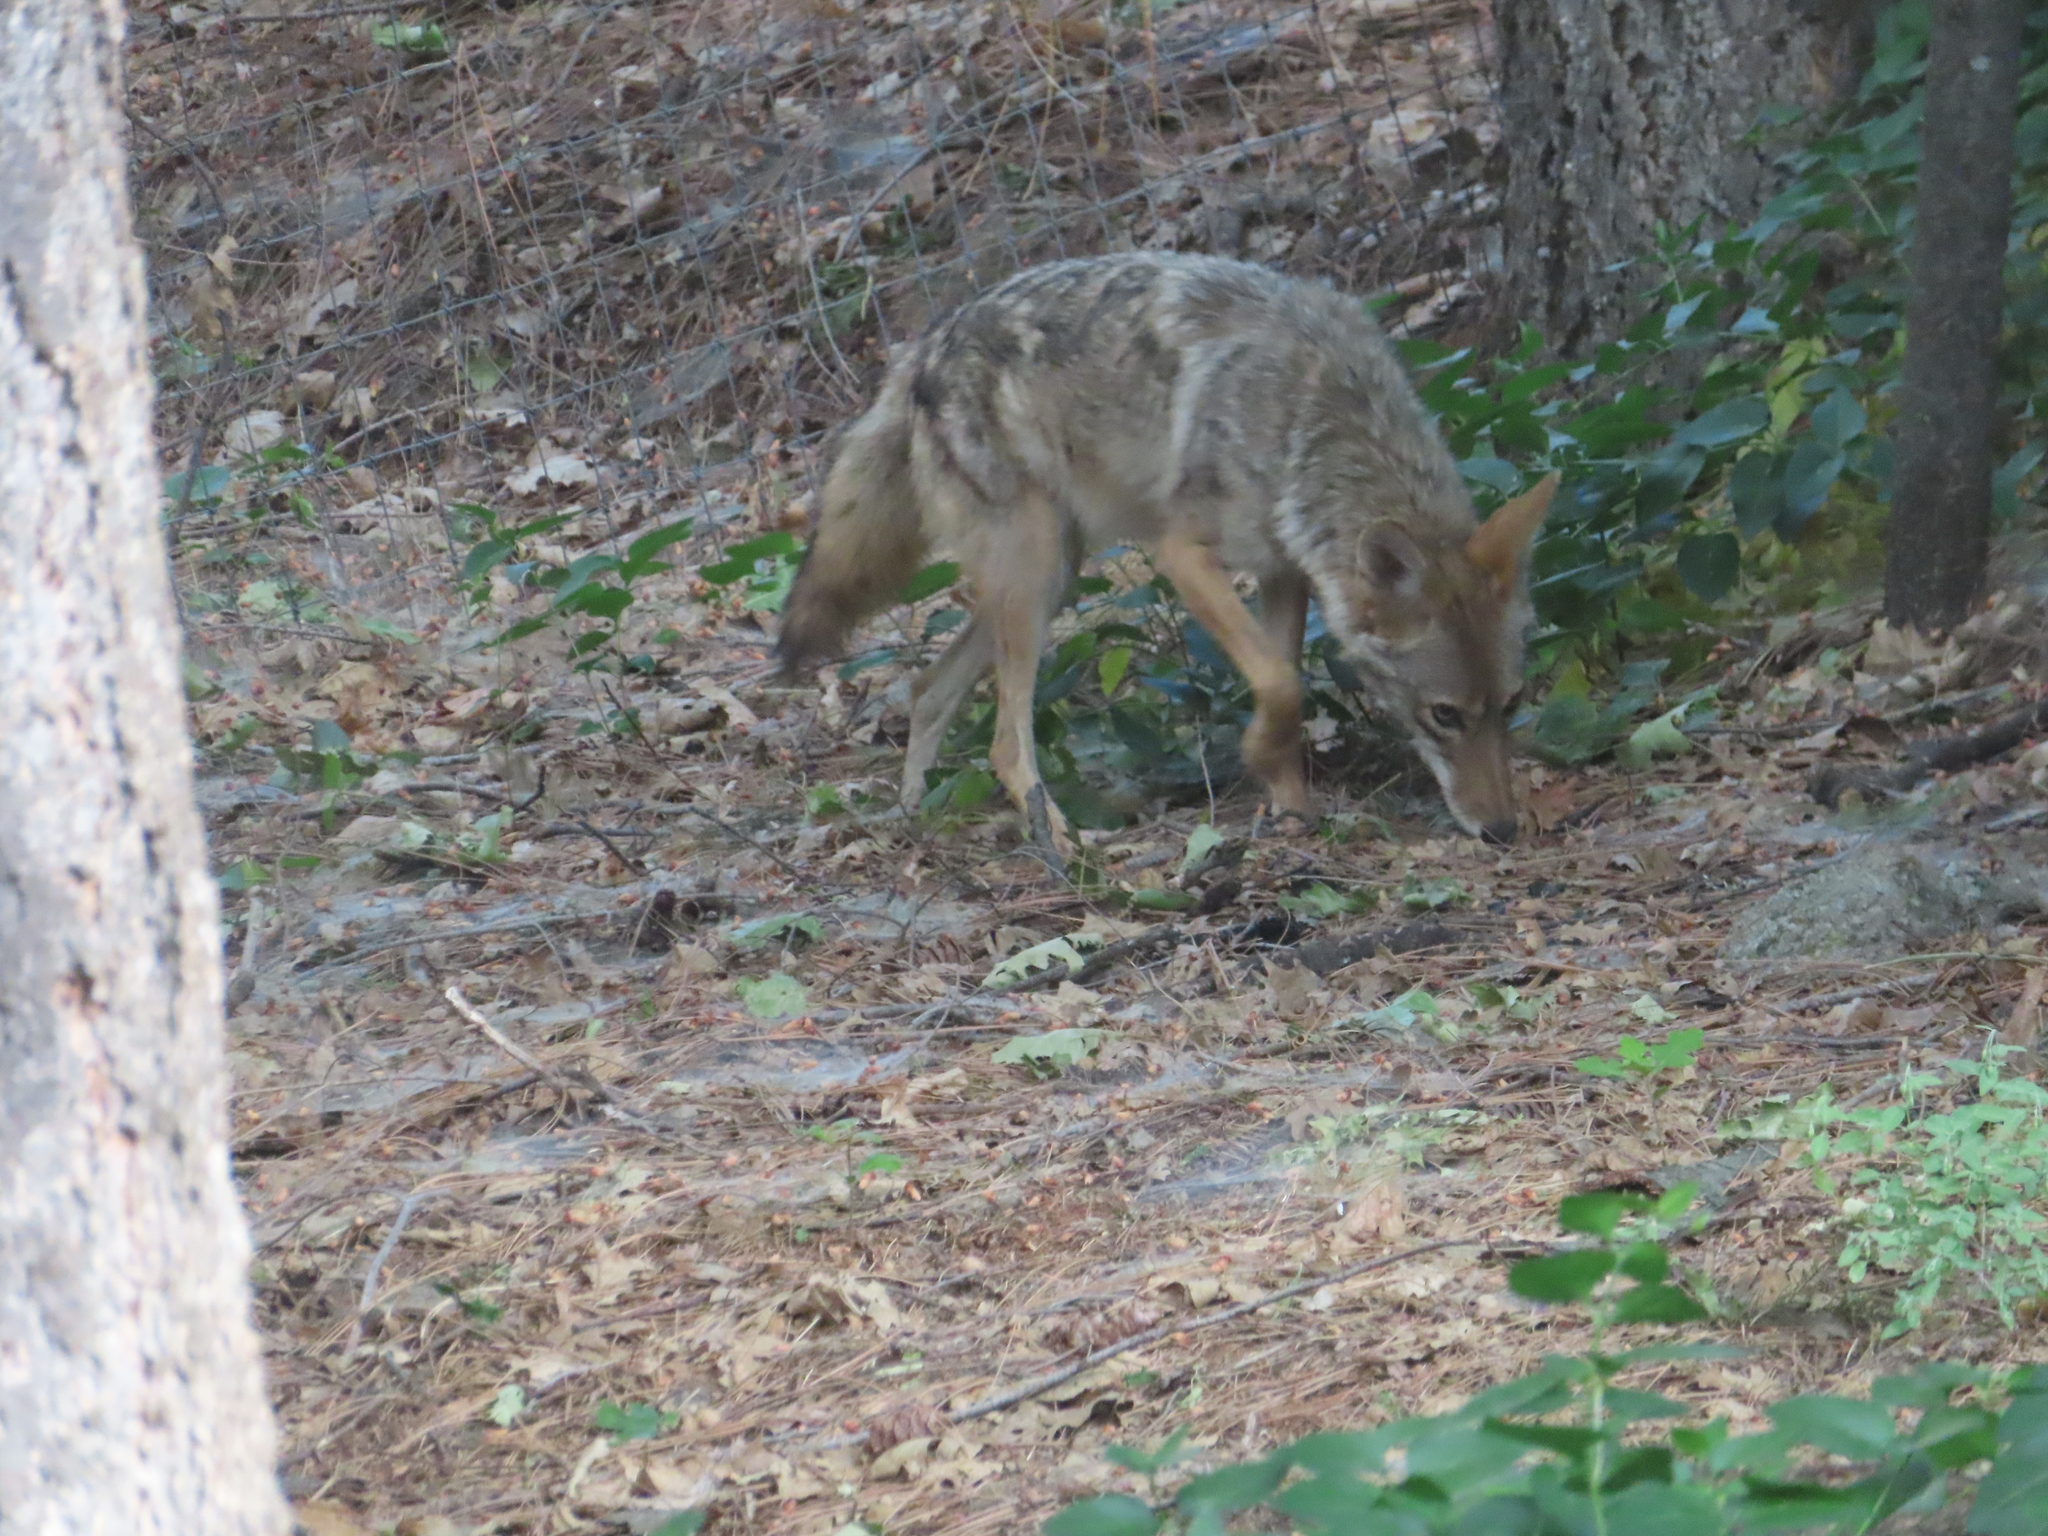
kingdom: Animalia
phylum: Chordata
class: Mammalia
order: Carnivora
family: Canidae
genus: Canis
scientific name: Canis latrans
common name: Coyote
